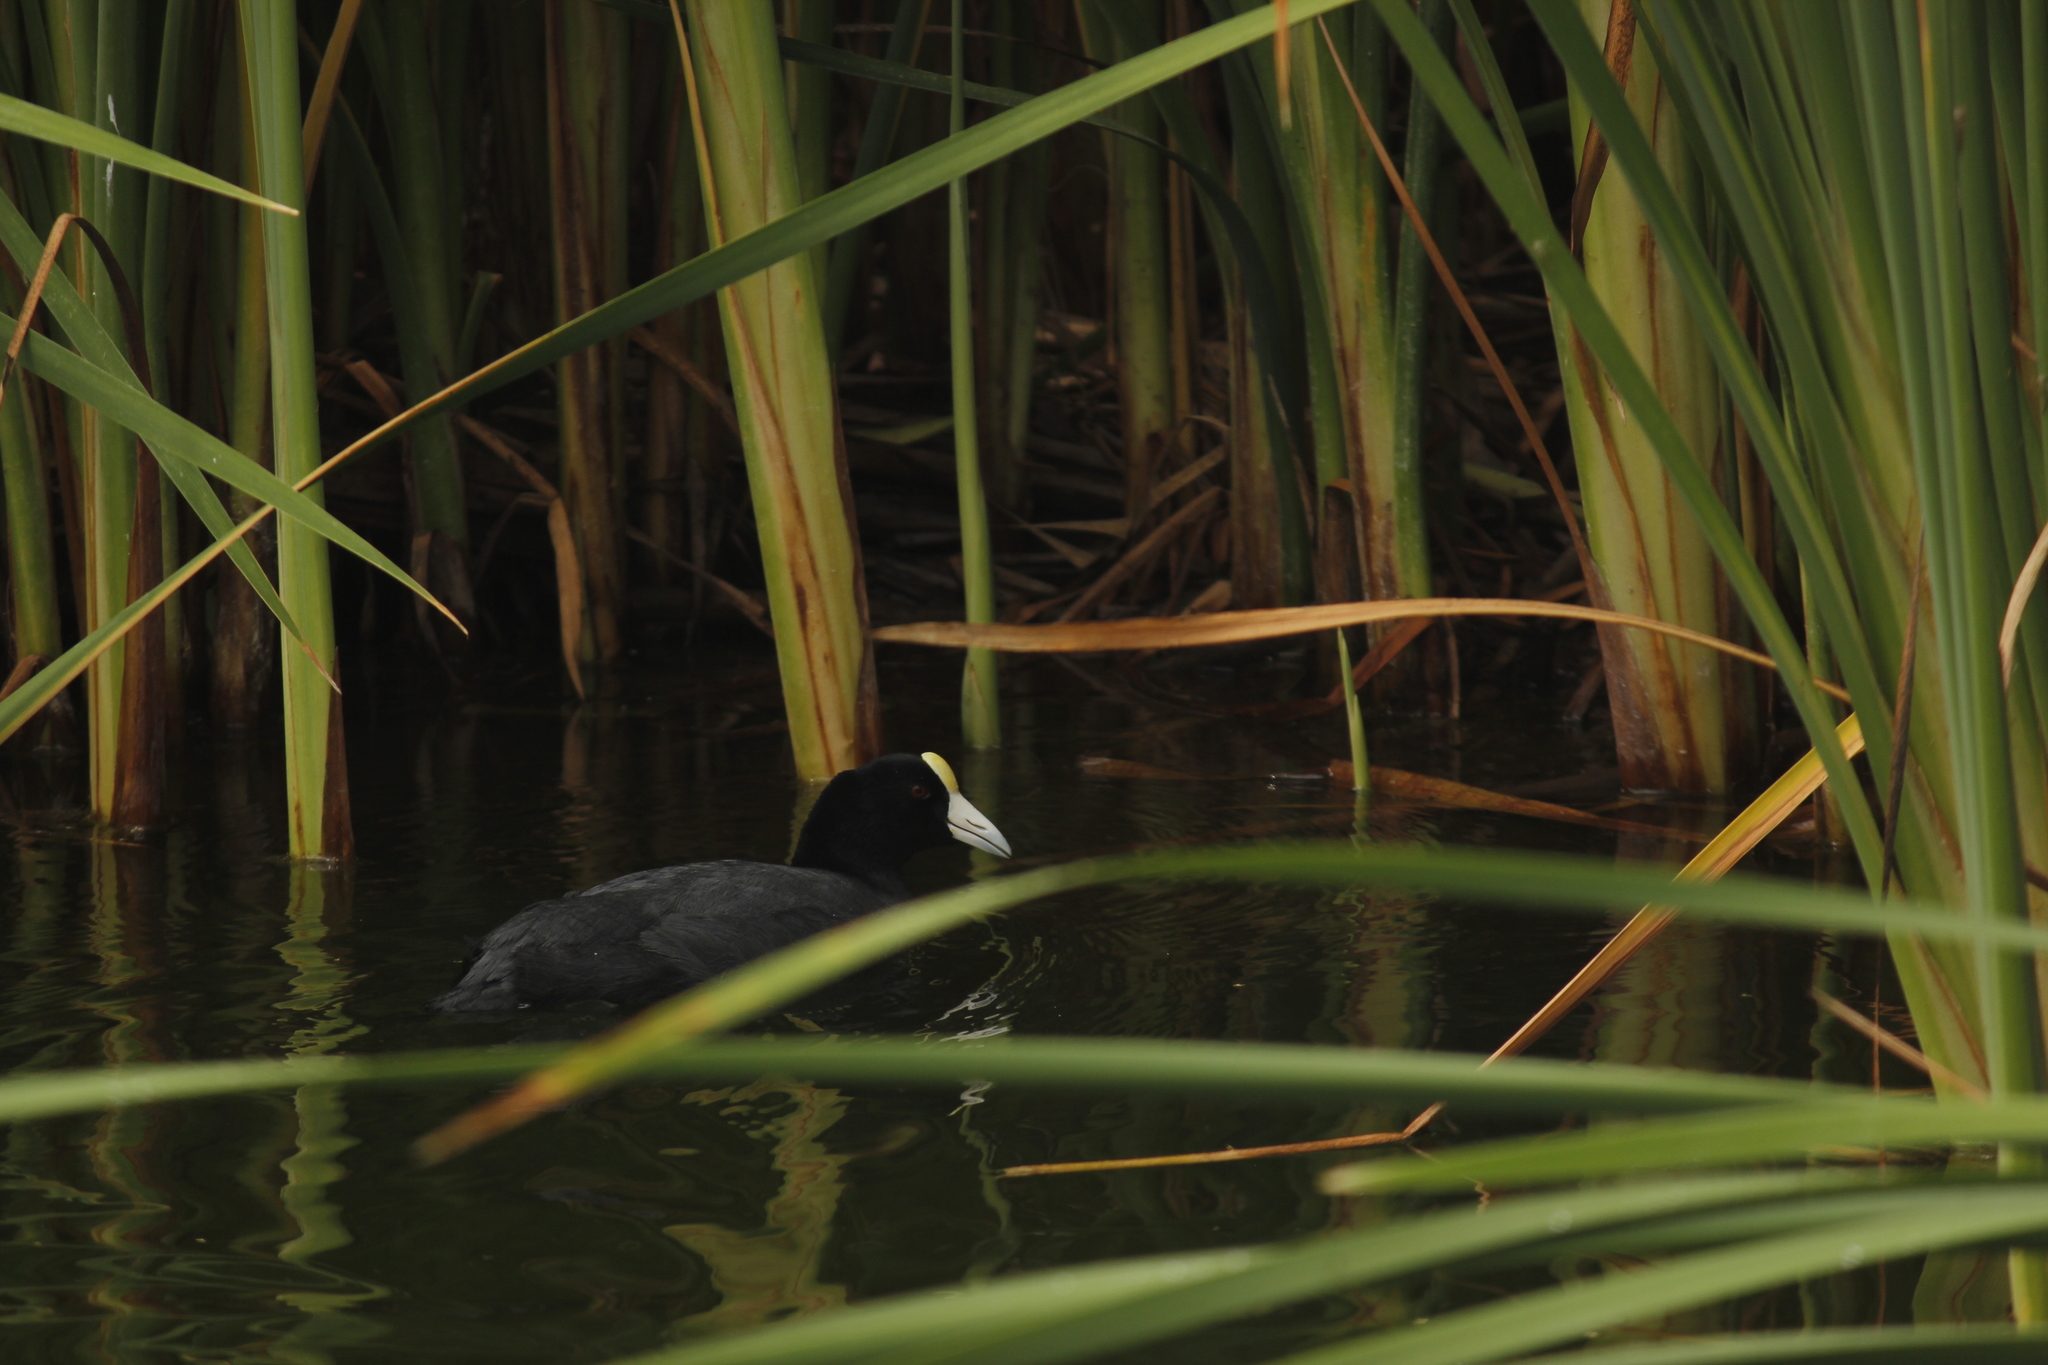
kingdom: Animalia
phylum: Chordata
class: Aves
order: Gruiformes
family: Rallidae
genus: Fulica
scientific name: Fulica ardesiaca
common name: Andean coot
